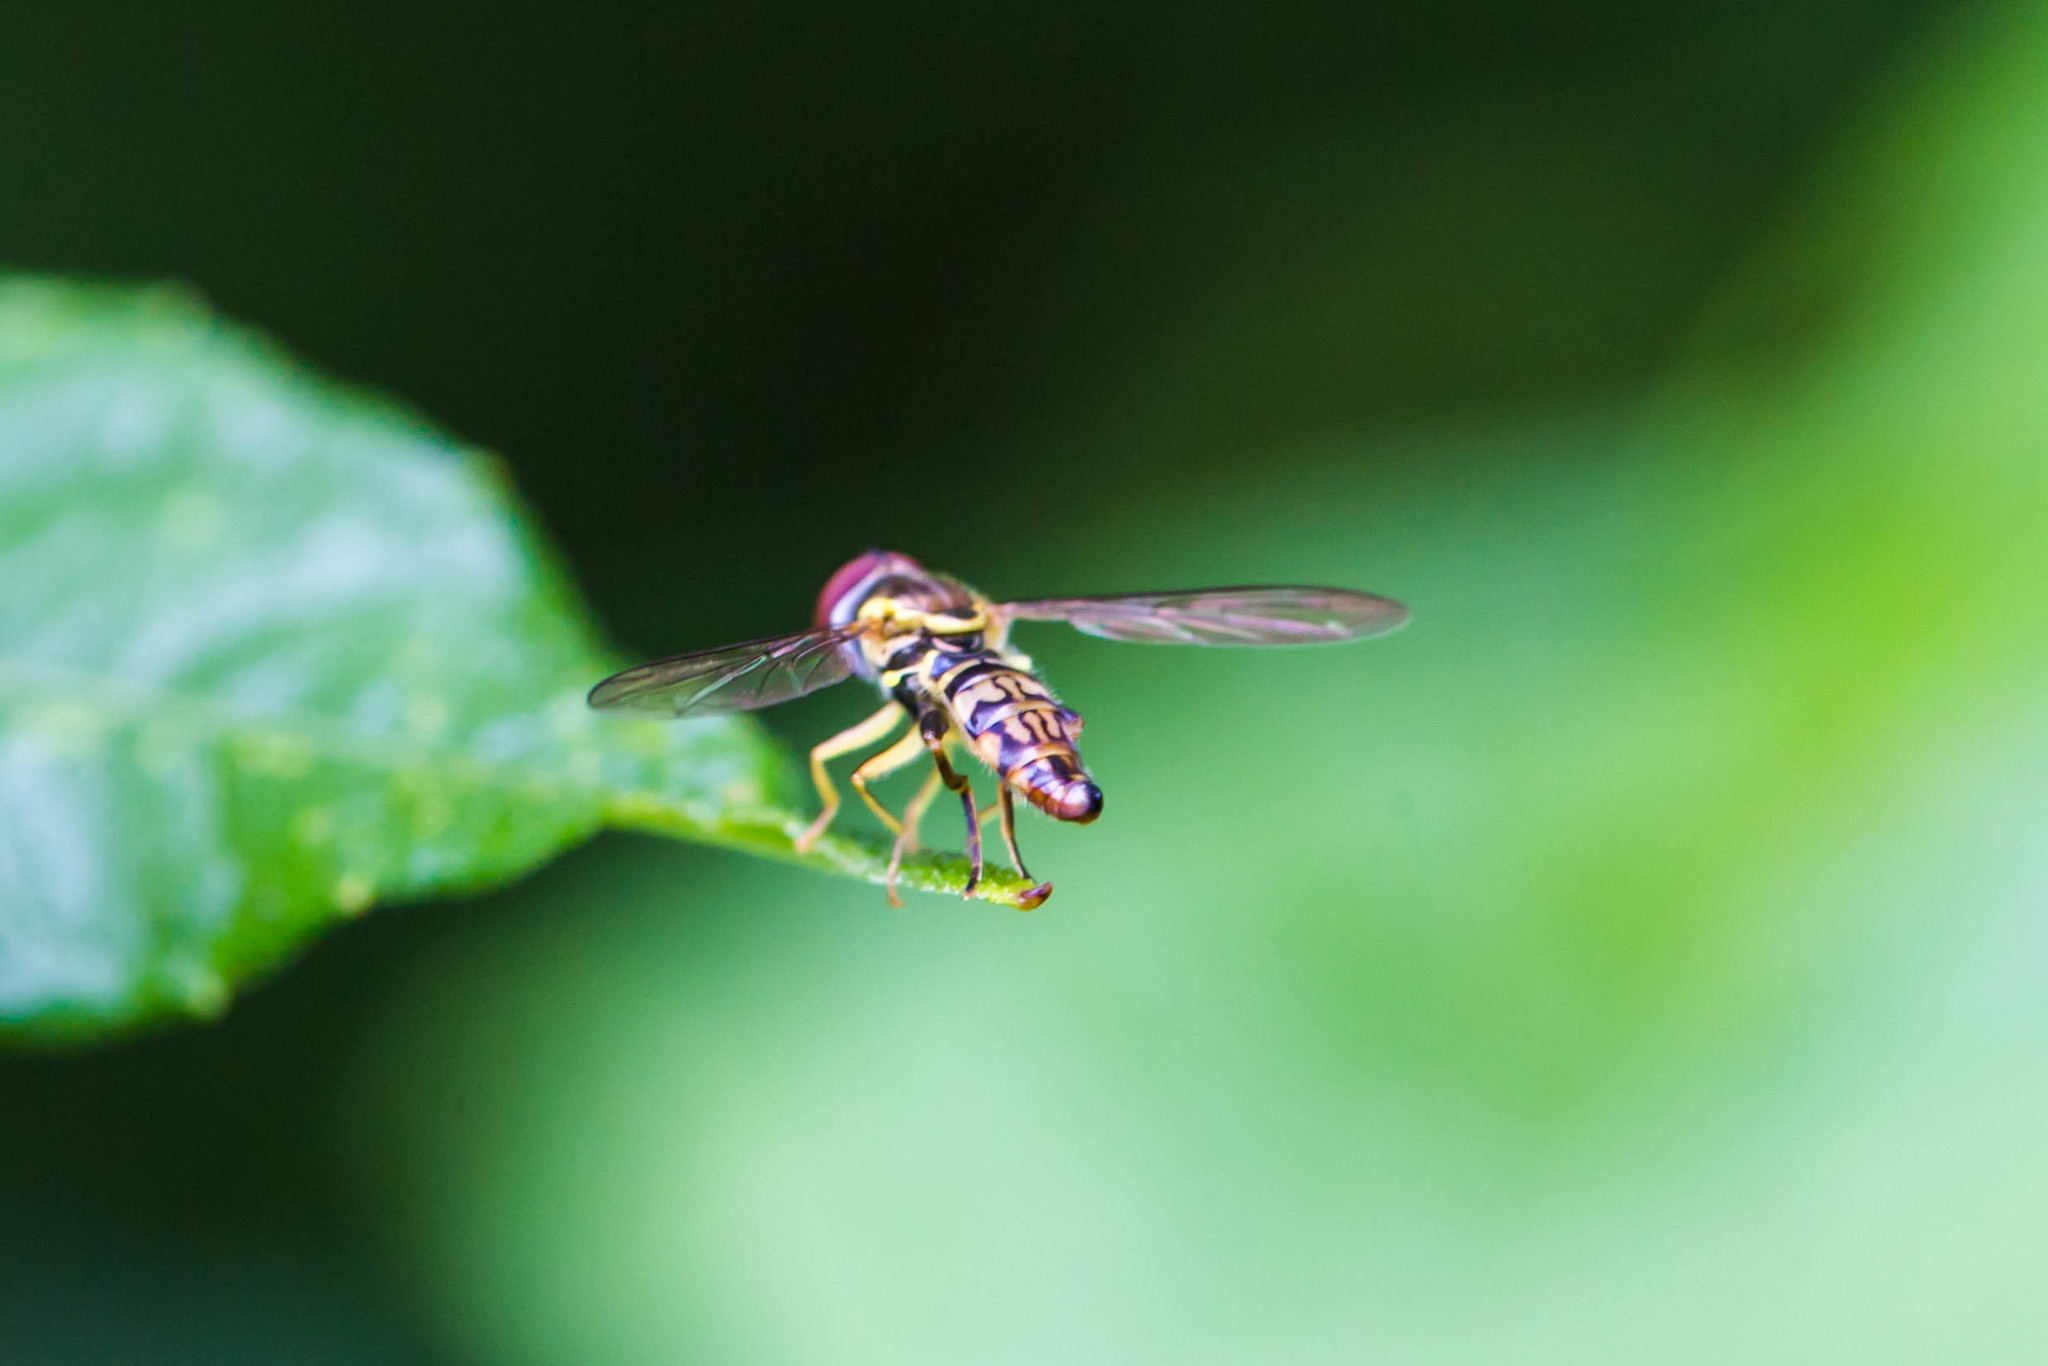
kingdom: Animalia
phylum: Arthropoda
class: Insecta
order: Diptera
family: Syrphidae
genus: Toxomerus
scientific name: Toxomerus geminatus
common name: Eastern calligrapher
